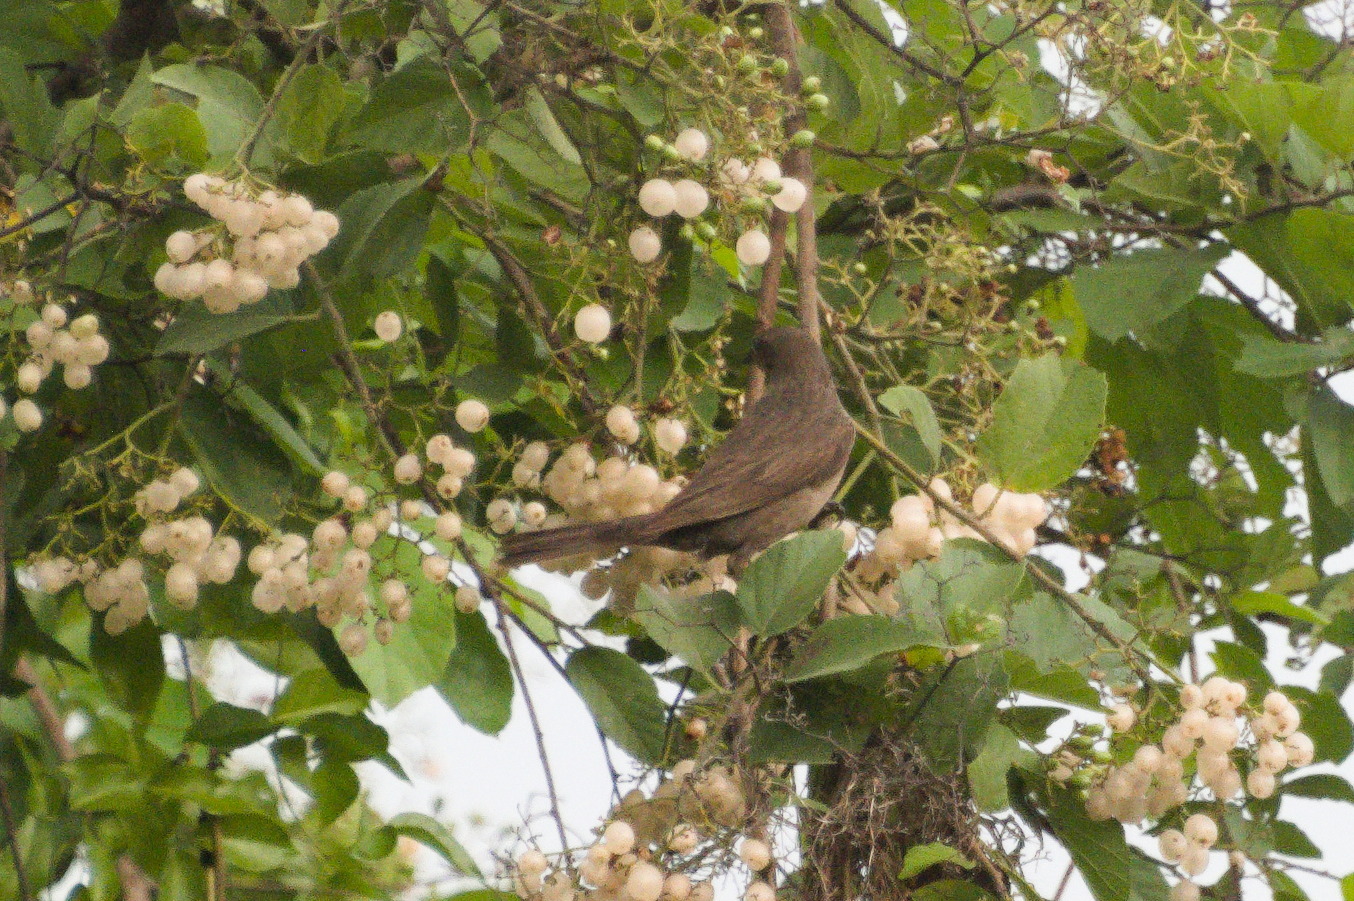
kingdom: Animalia
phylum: Chordata
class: Aves
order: Passeriformes
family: Icteridae
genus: Molothrus
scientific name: Molothrus bonariensis
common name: Shiny cowbird
